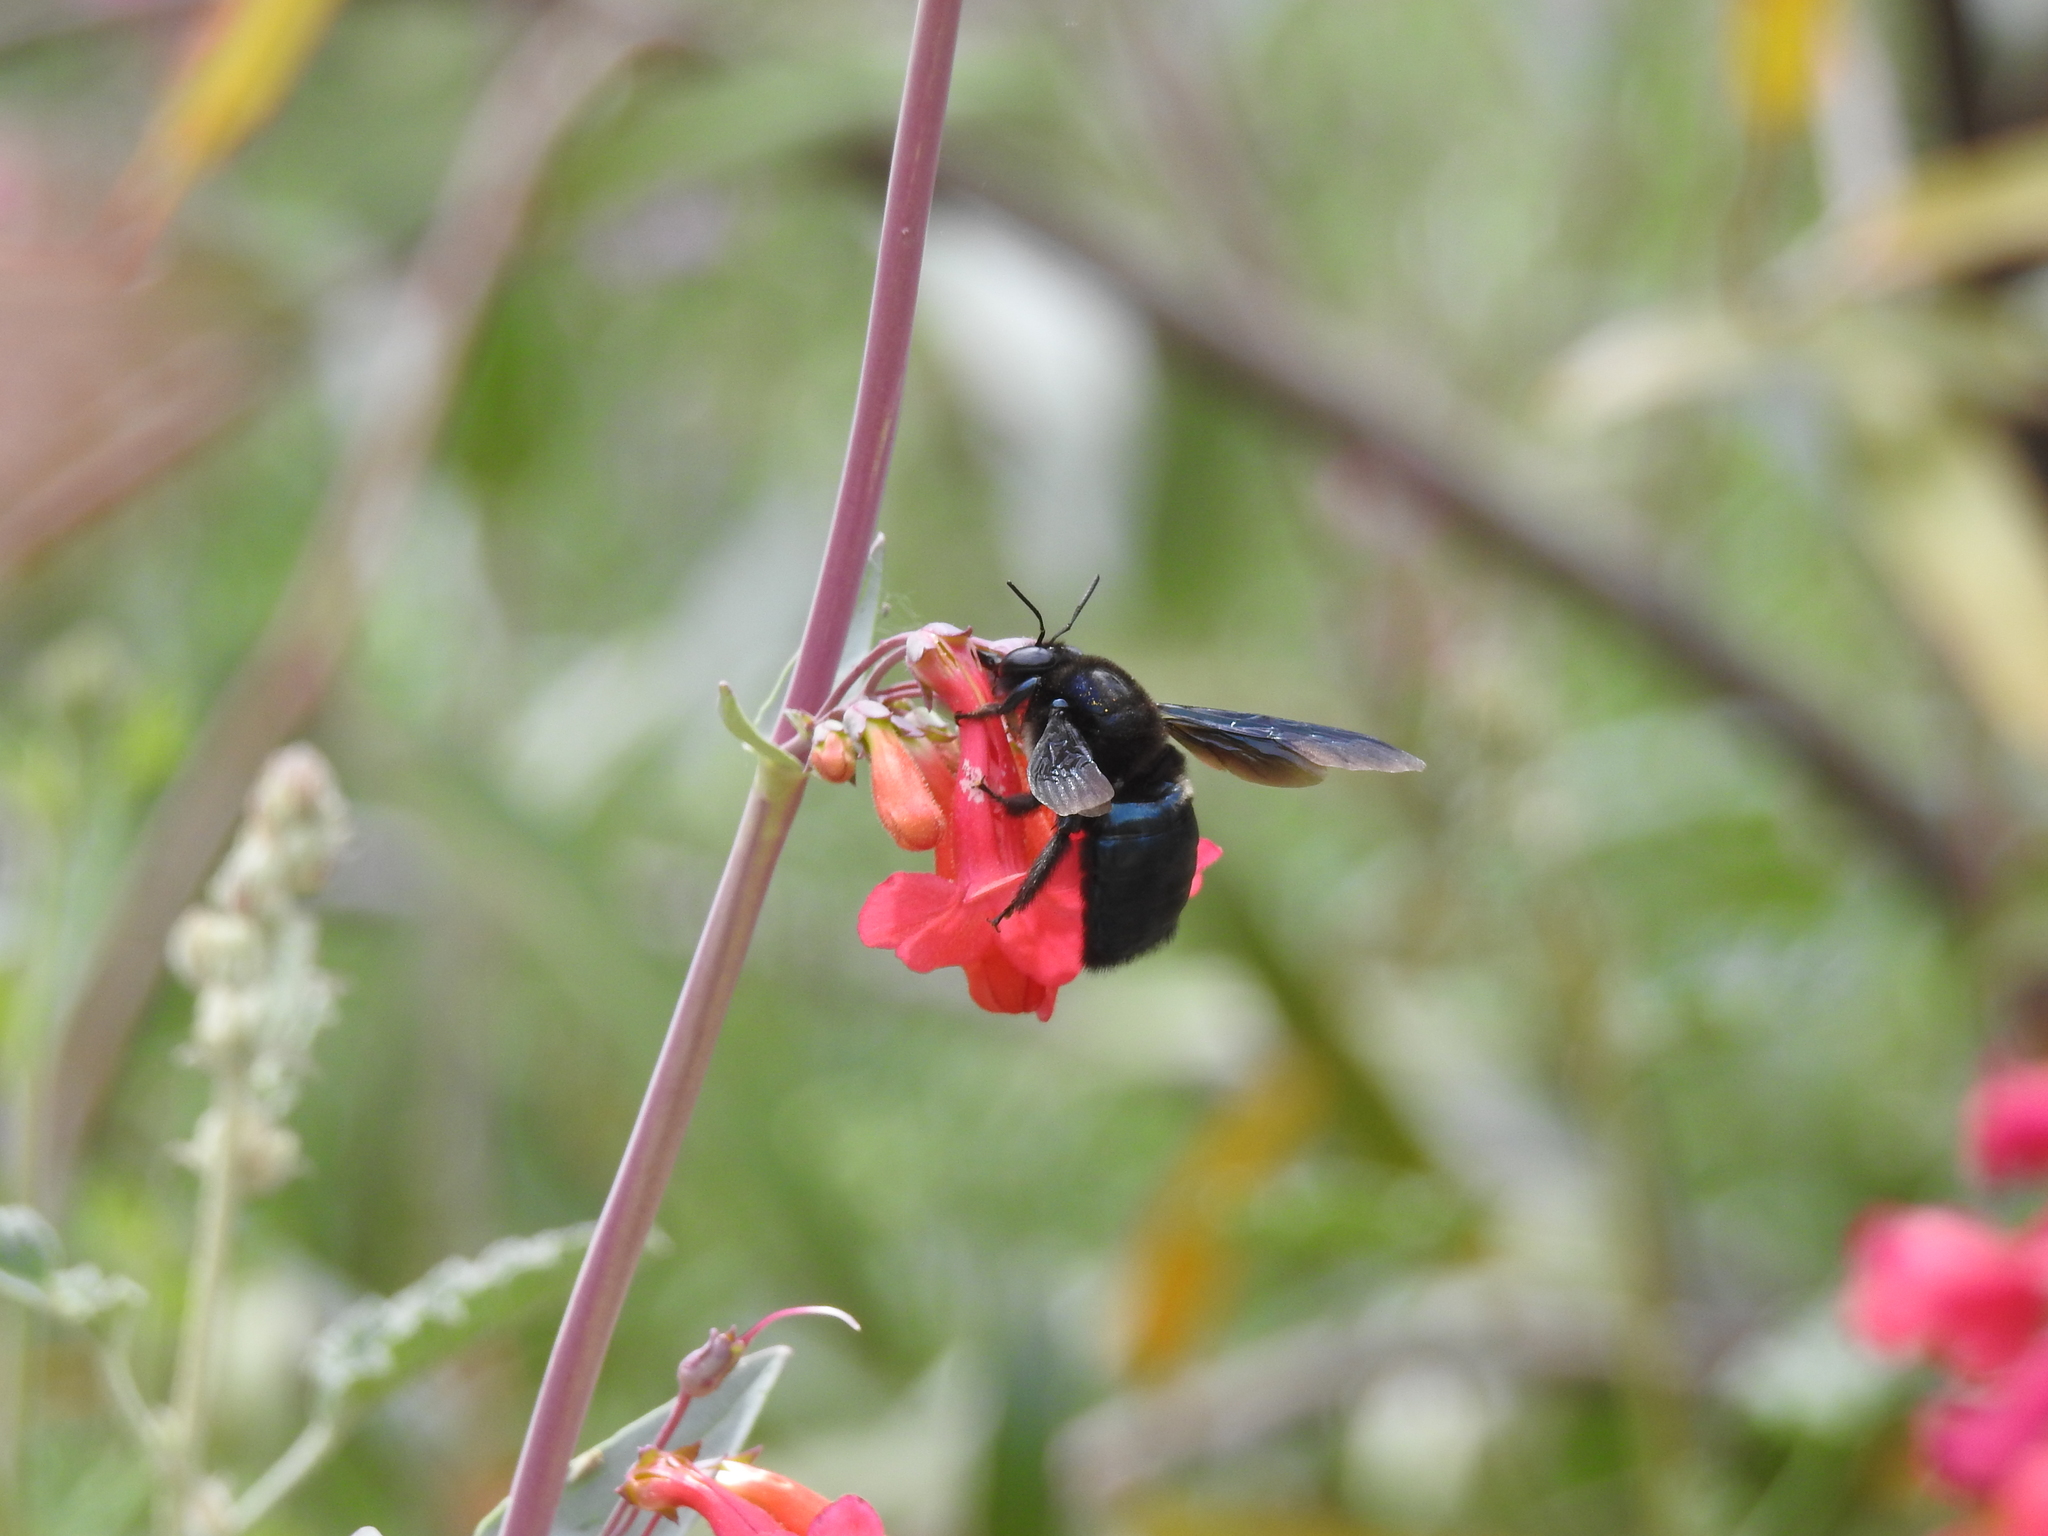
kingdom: Animalia
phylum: Arthropoda
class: Insecta
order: Hymenoptera
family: Apidae
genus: Xylocopa
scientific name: Xylocopa californica
